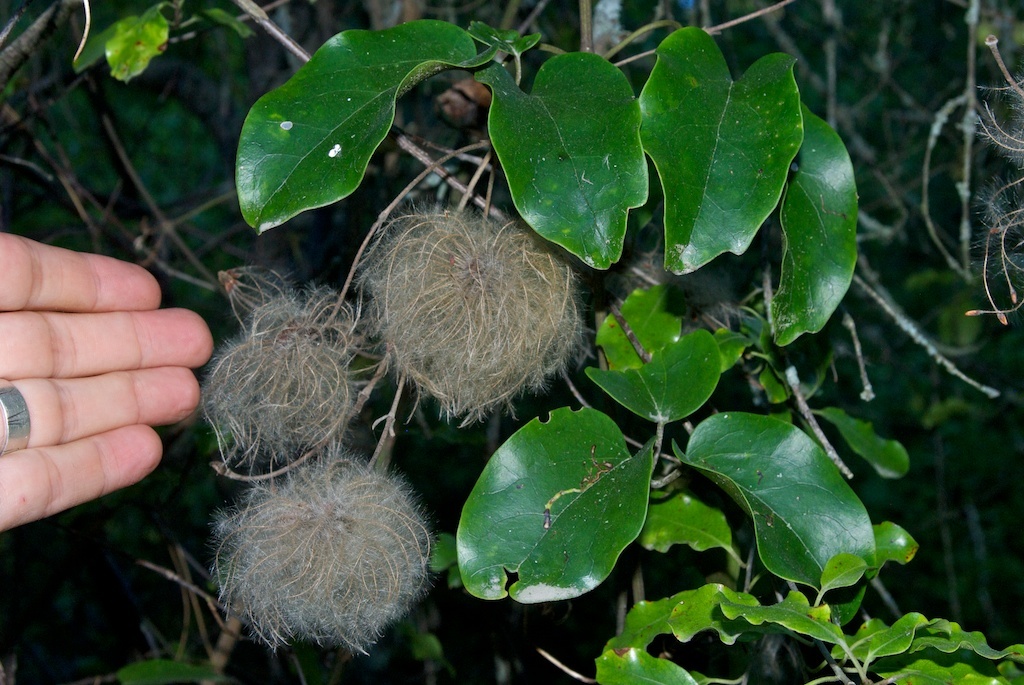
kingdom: Plantae
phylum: Tracheophyta
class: Magnoliopsida
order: Ranunculales
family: Ranunculaceae
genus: Clematis
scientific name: Clematis paniculata
